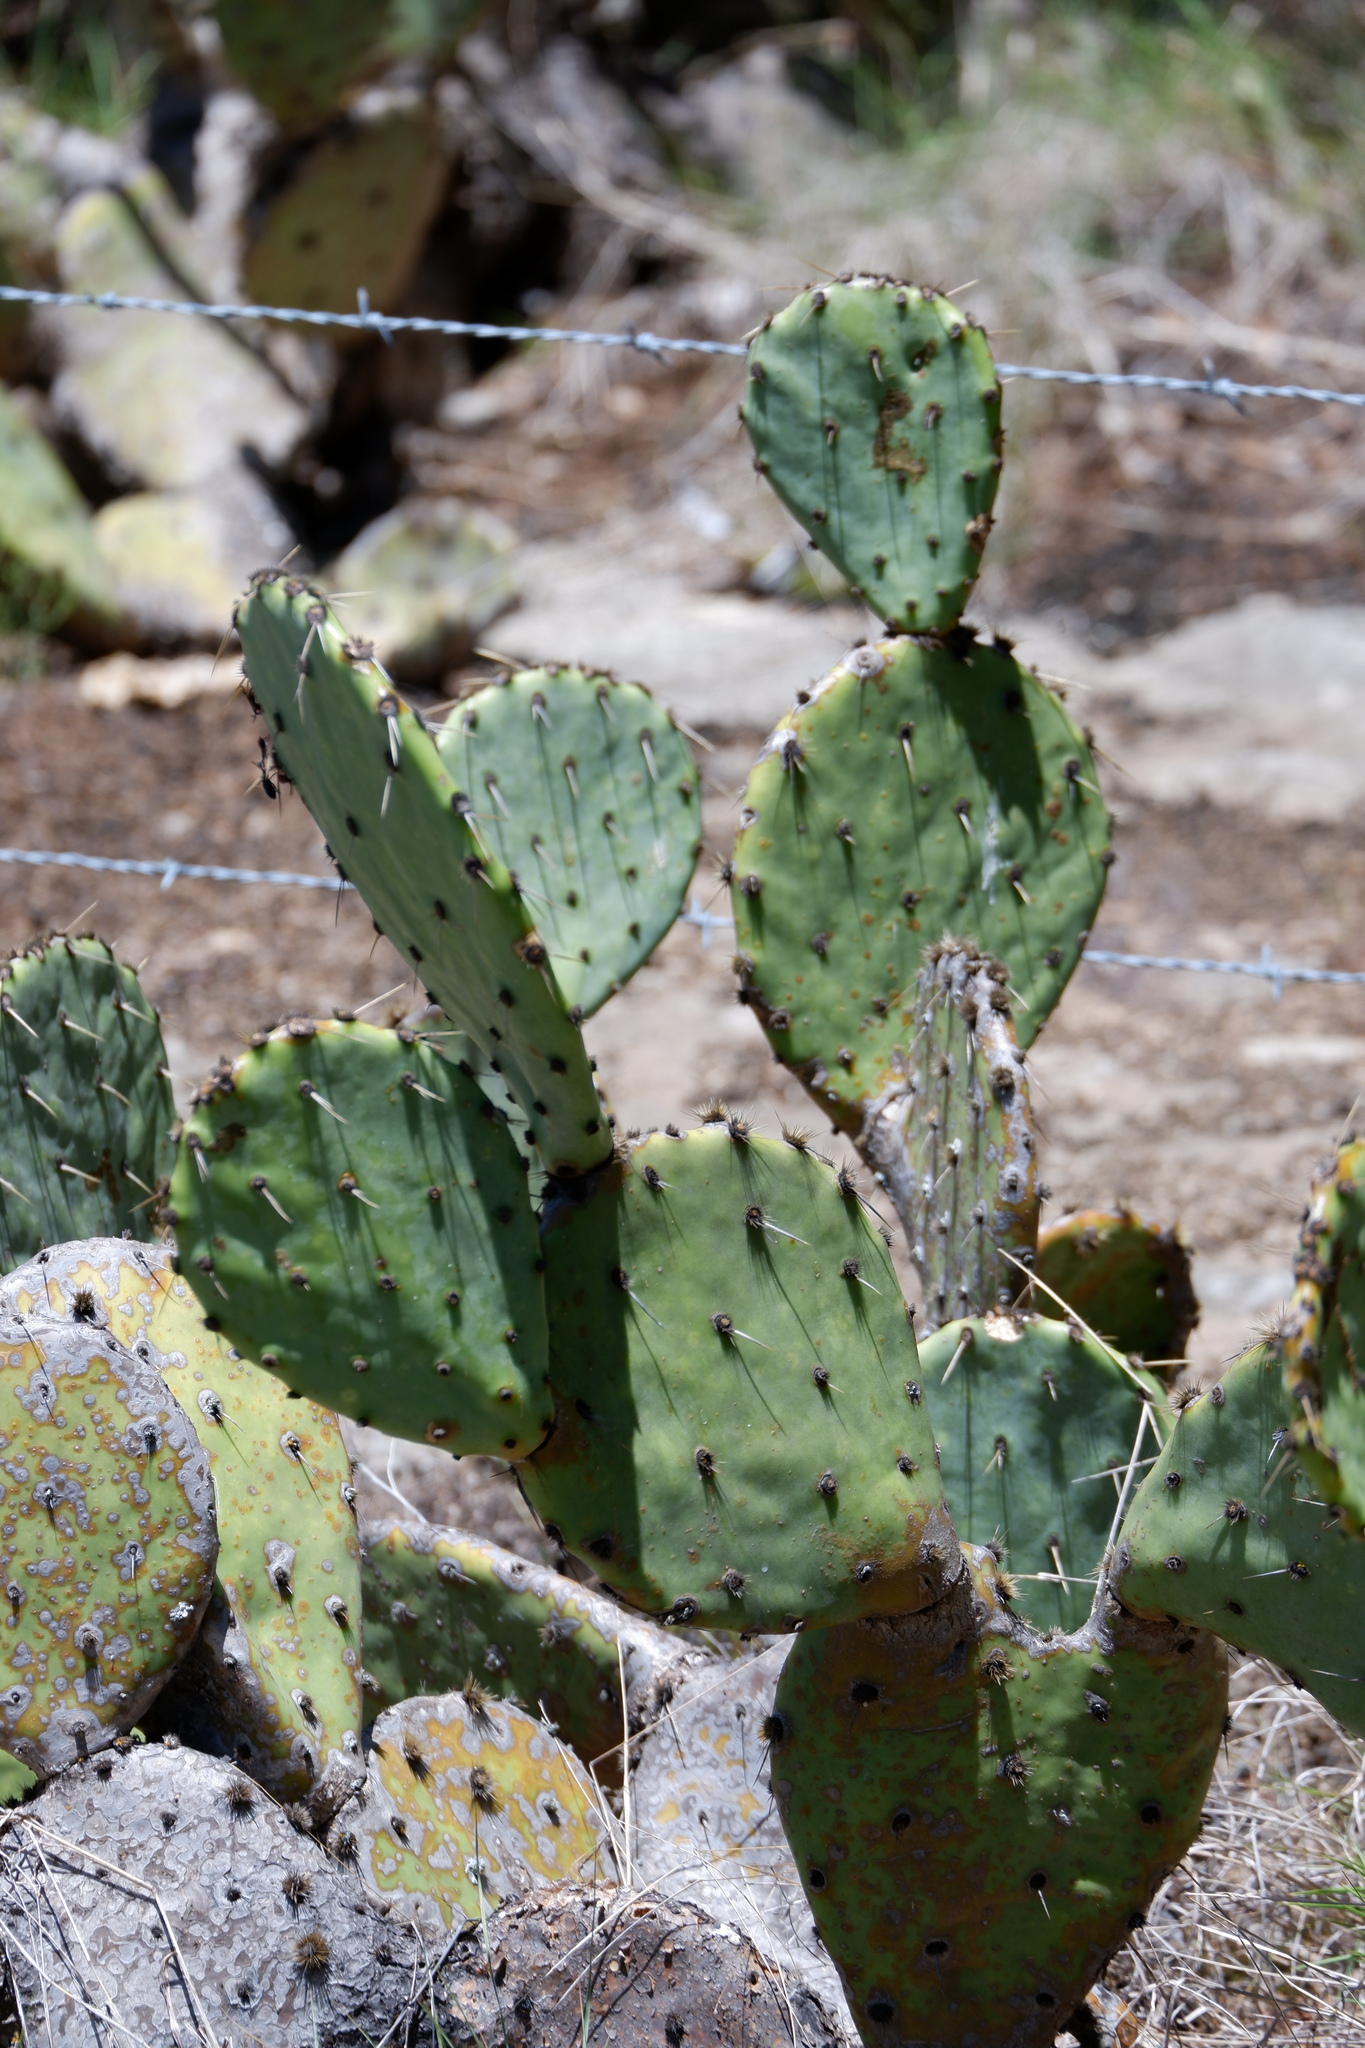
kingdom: Plantae
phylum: Tracheophyta
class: Magnoliopsida
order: Caryophyllales
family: Cactaceae
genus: Opuntia
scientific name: Opuntia orbiculata
